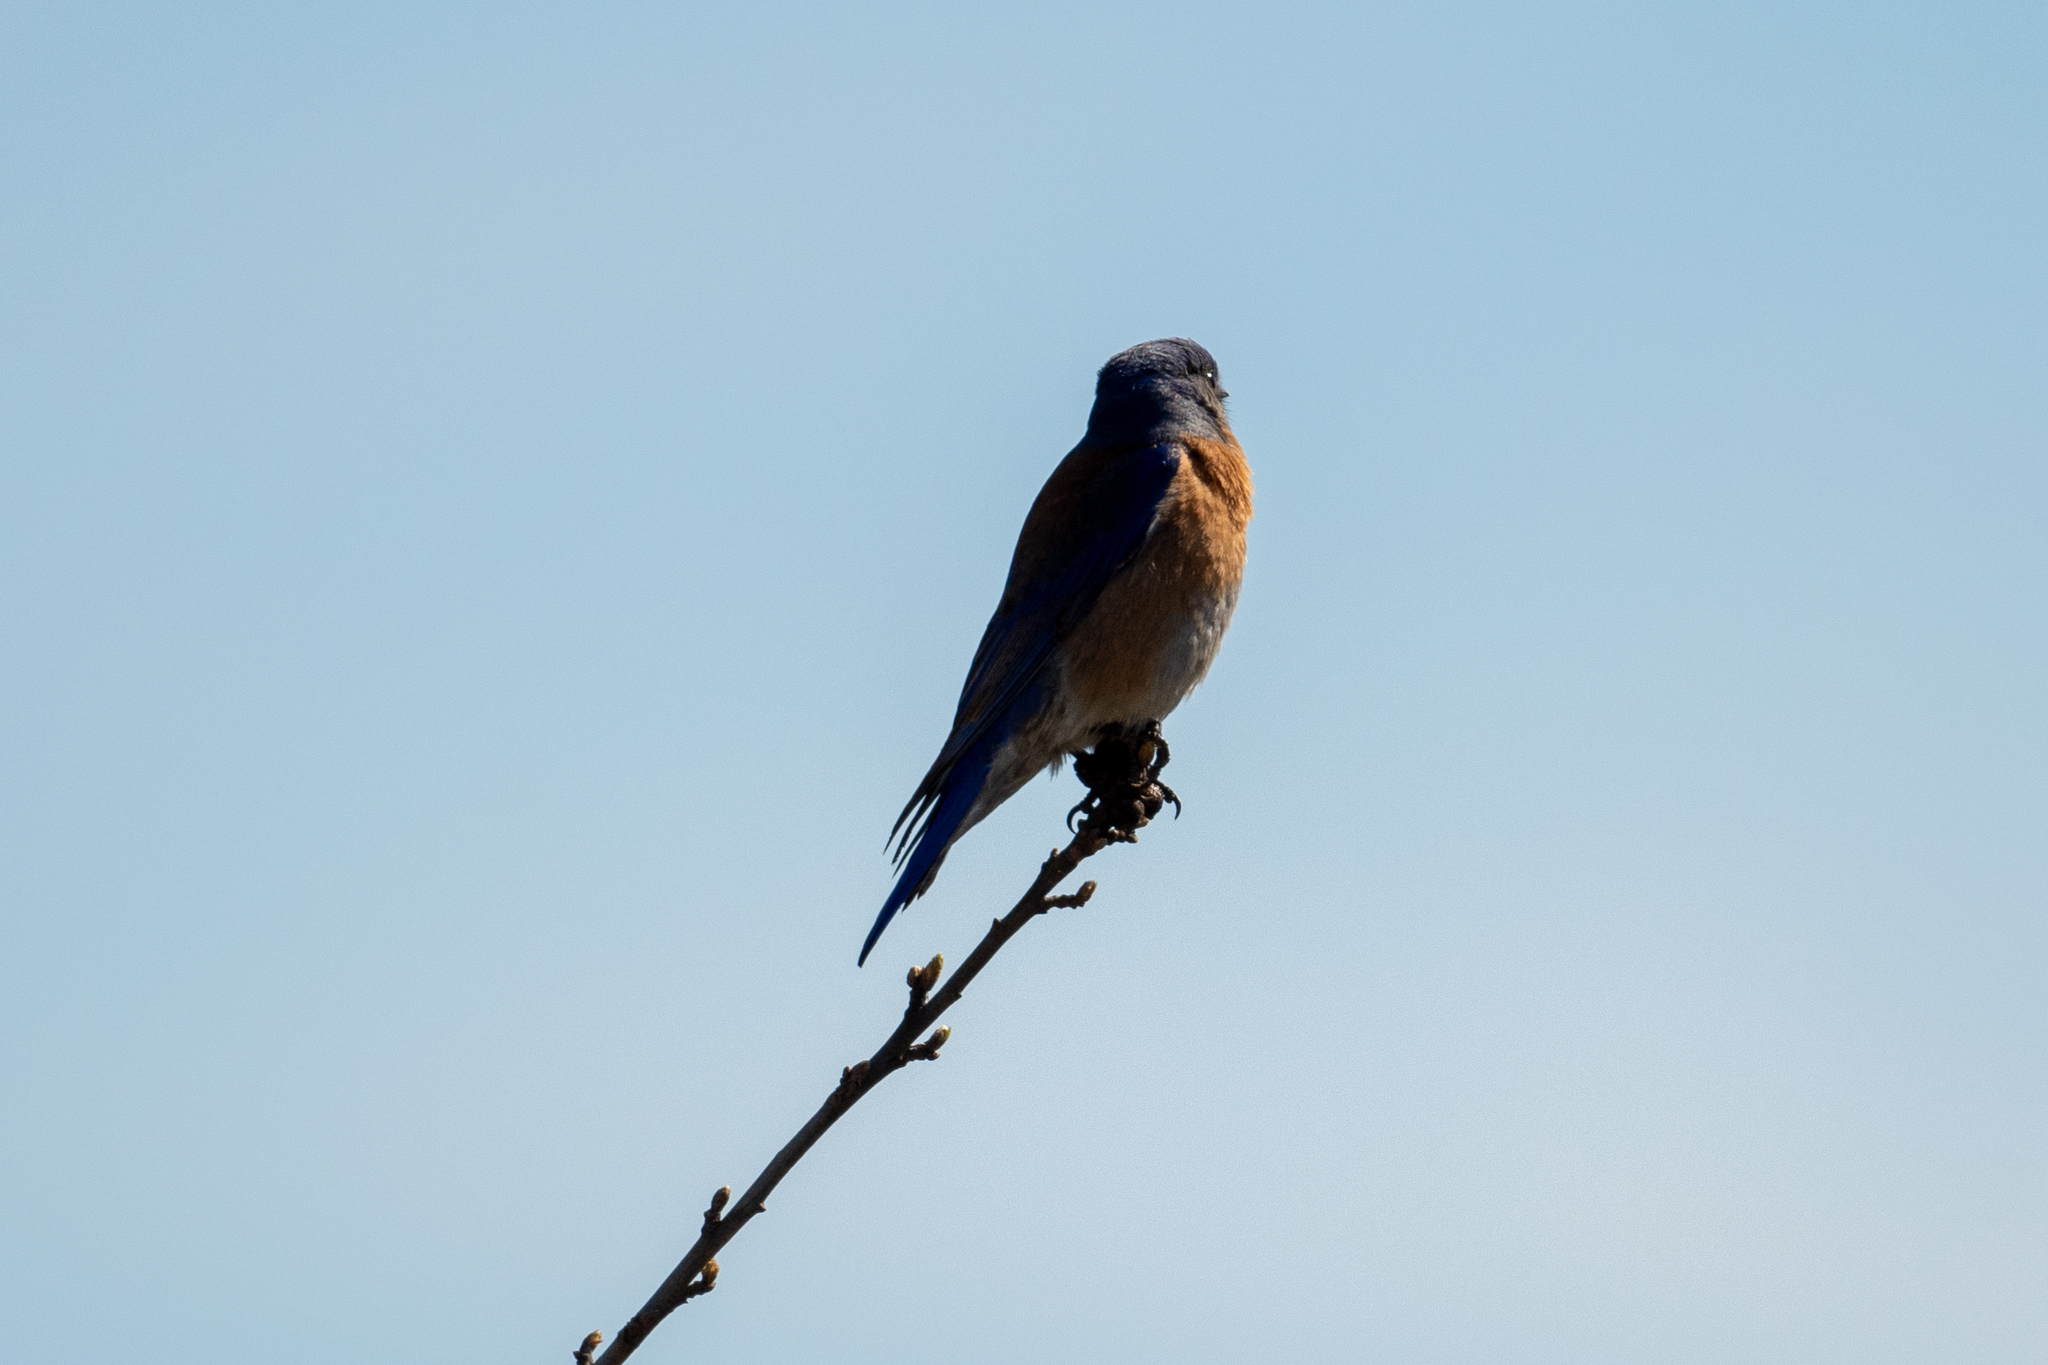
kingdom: Animalia
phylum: Chordata
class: Aves
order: Passeriformes
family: Turdidae
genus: Sialia
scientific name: Sialia mexicana
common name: Western bluebird
